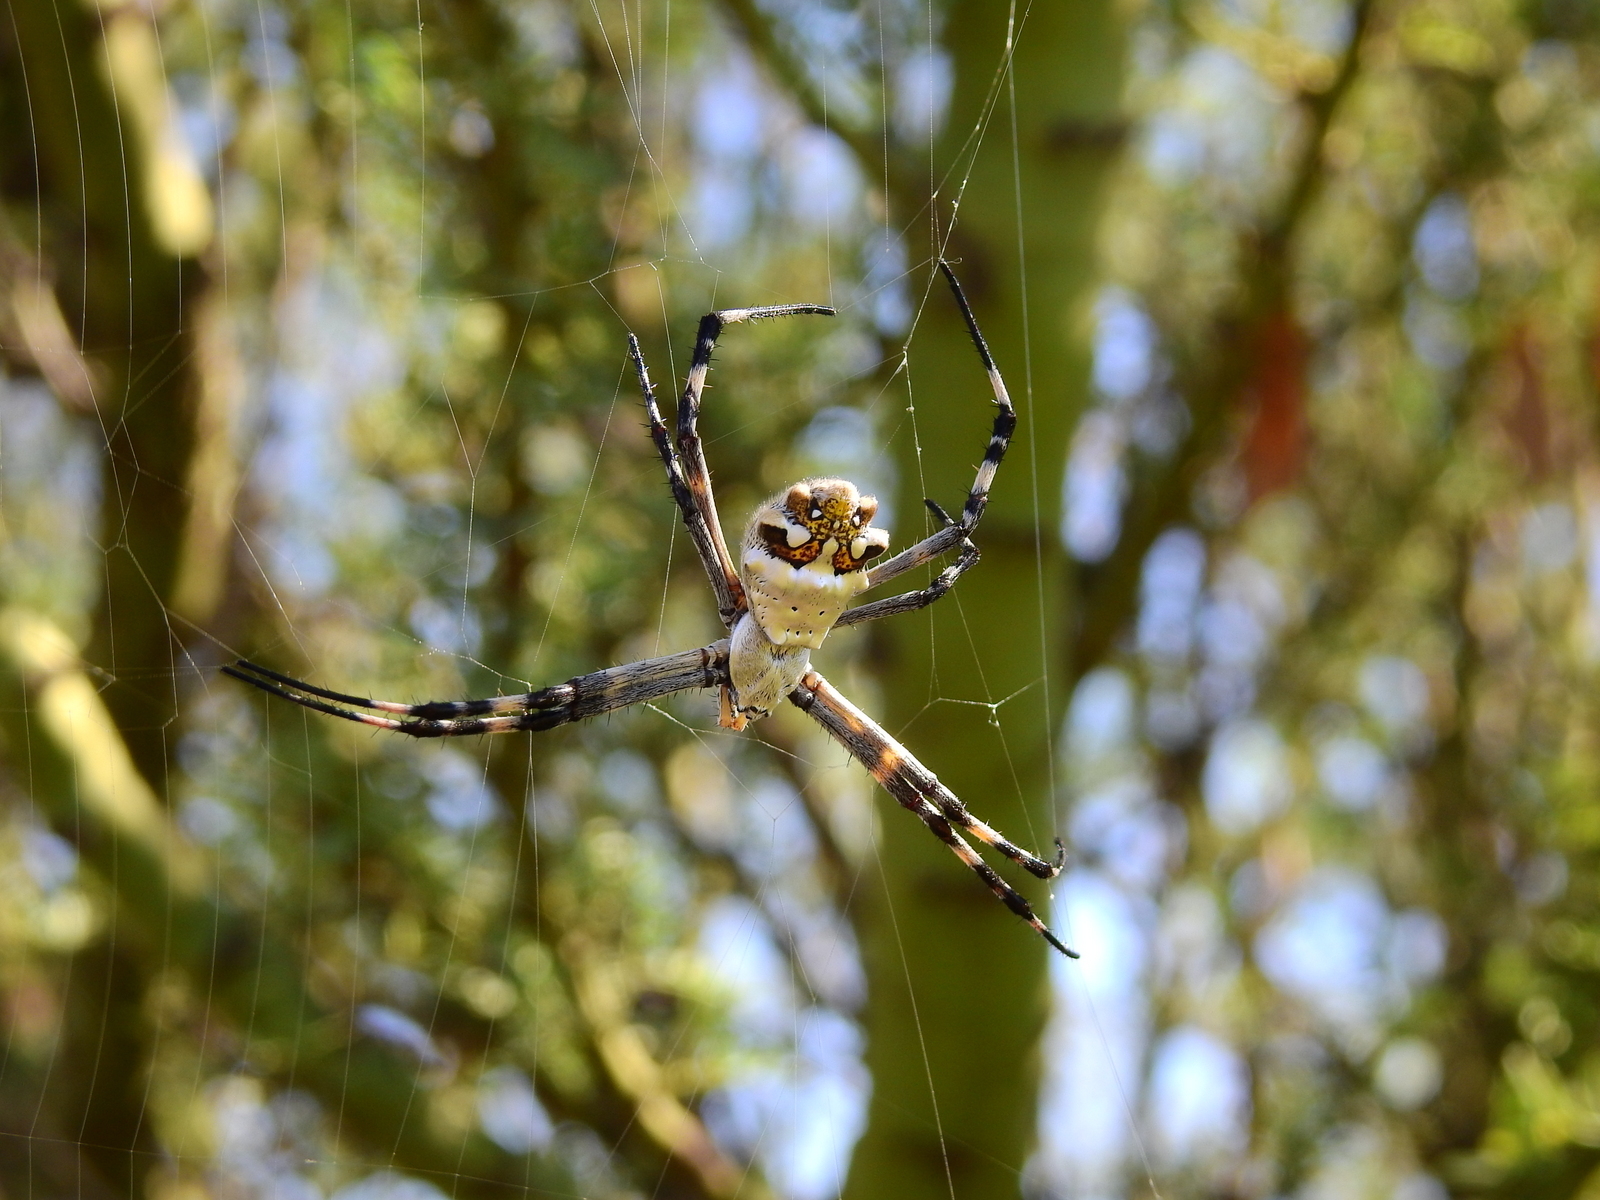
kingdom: Animalia
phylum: Arthropoda
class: Arachnida
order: Araneae
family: Araneidae
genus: Argiope
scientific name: Argiope argentata
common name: Orb weavers
